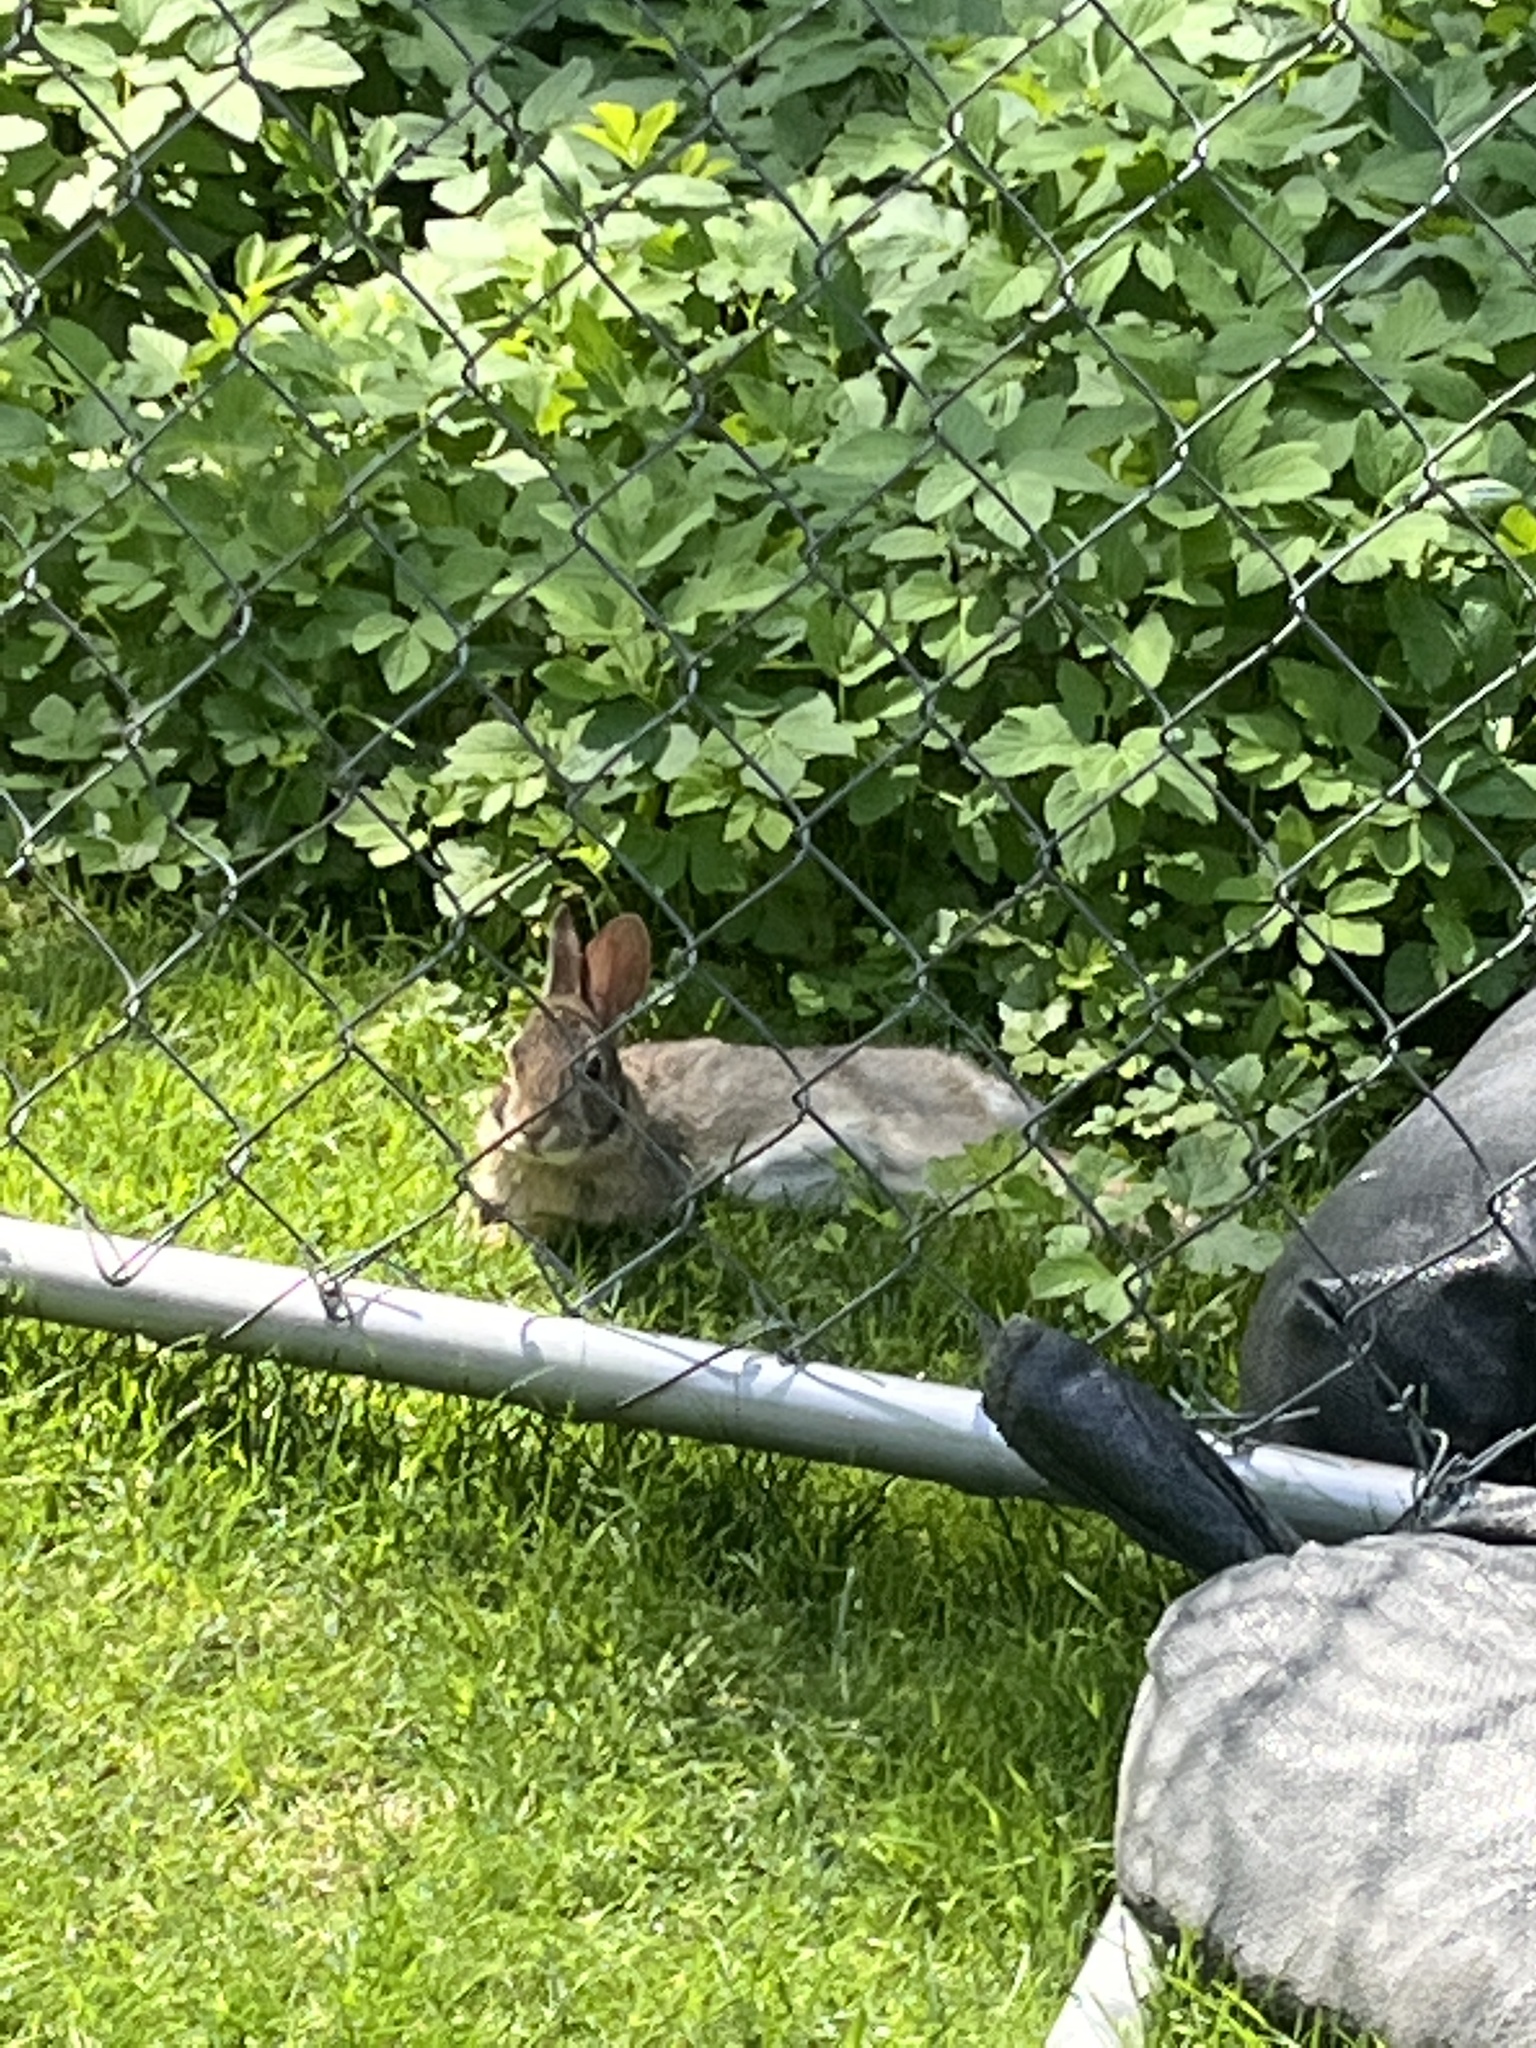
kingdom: Animalia
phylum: Chordata
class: Mammalia
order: Lagomorpha
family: Leporidae
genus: Sylvilagus
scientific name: Sylvilagus floridanus
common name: Eastern cottontail
